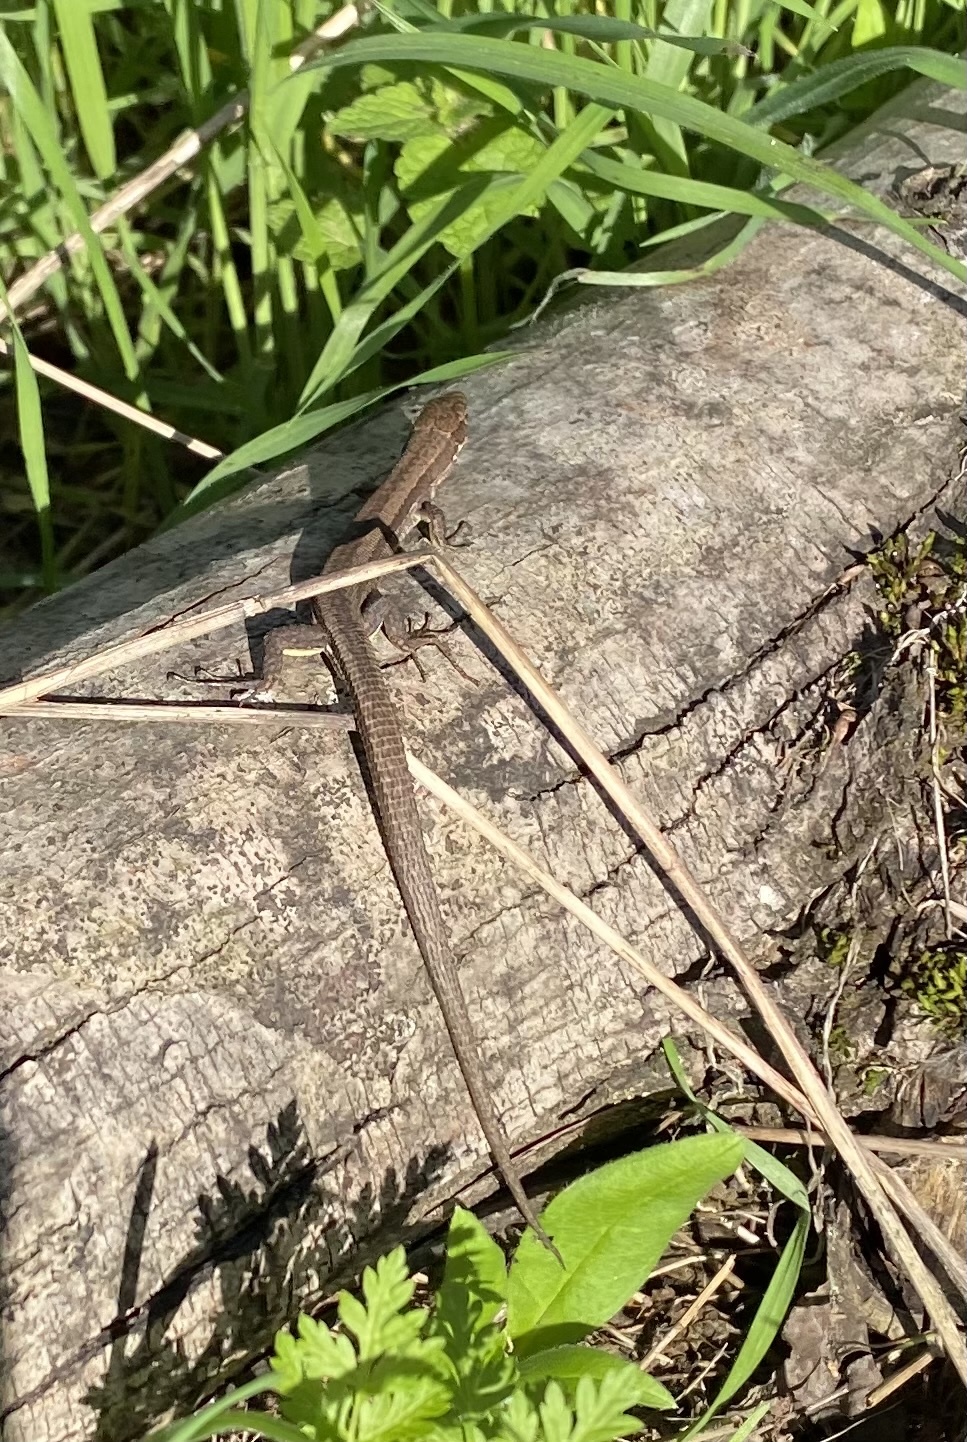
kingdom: Animalia
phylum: Chordata
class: Squamata
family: Lacertidae
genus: Darevskia
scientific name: Darevskia praticola
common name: Meadow lizard
